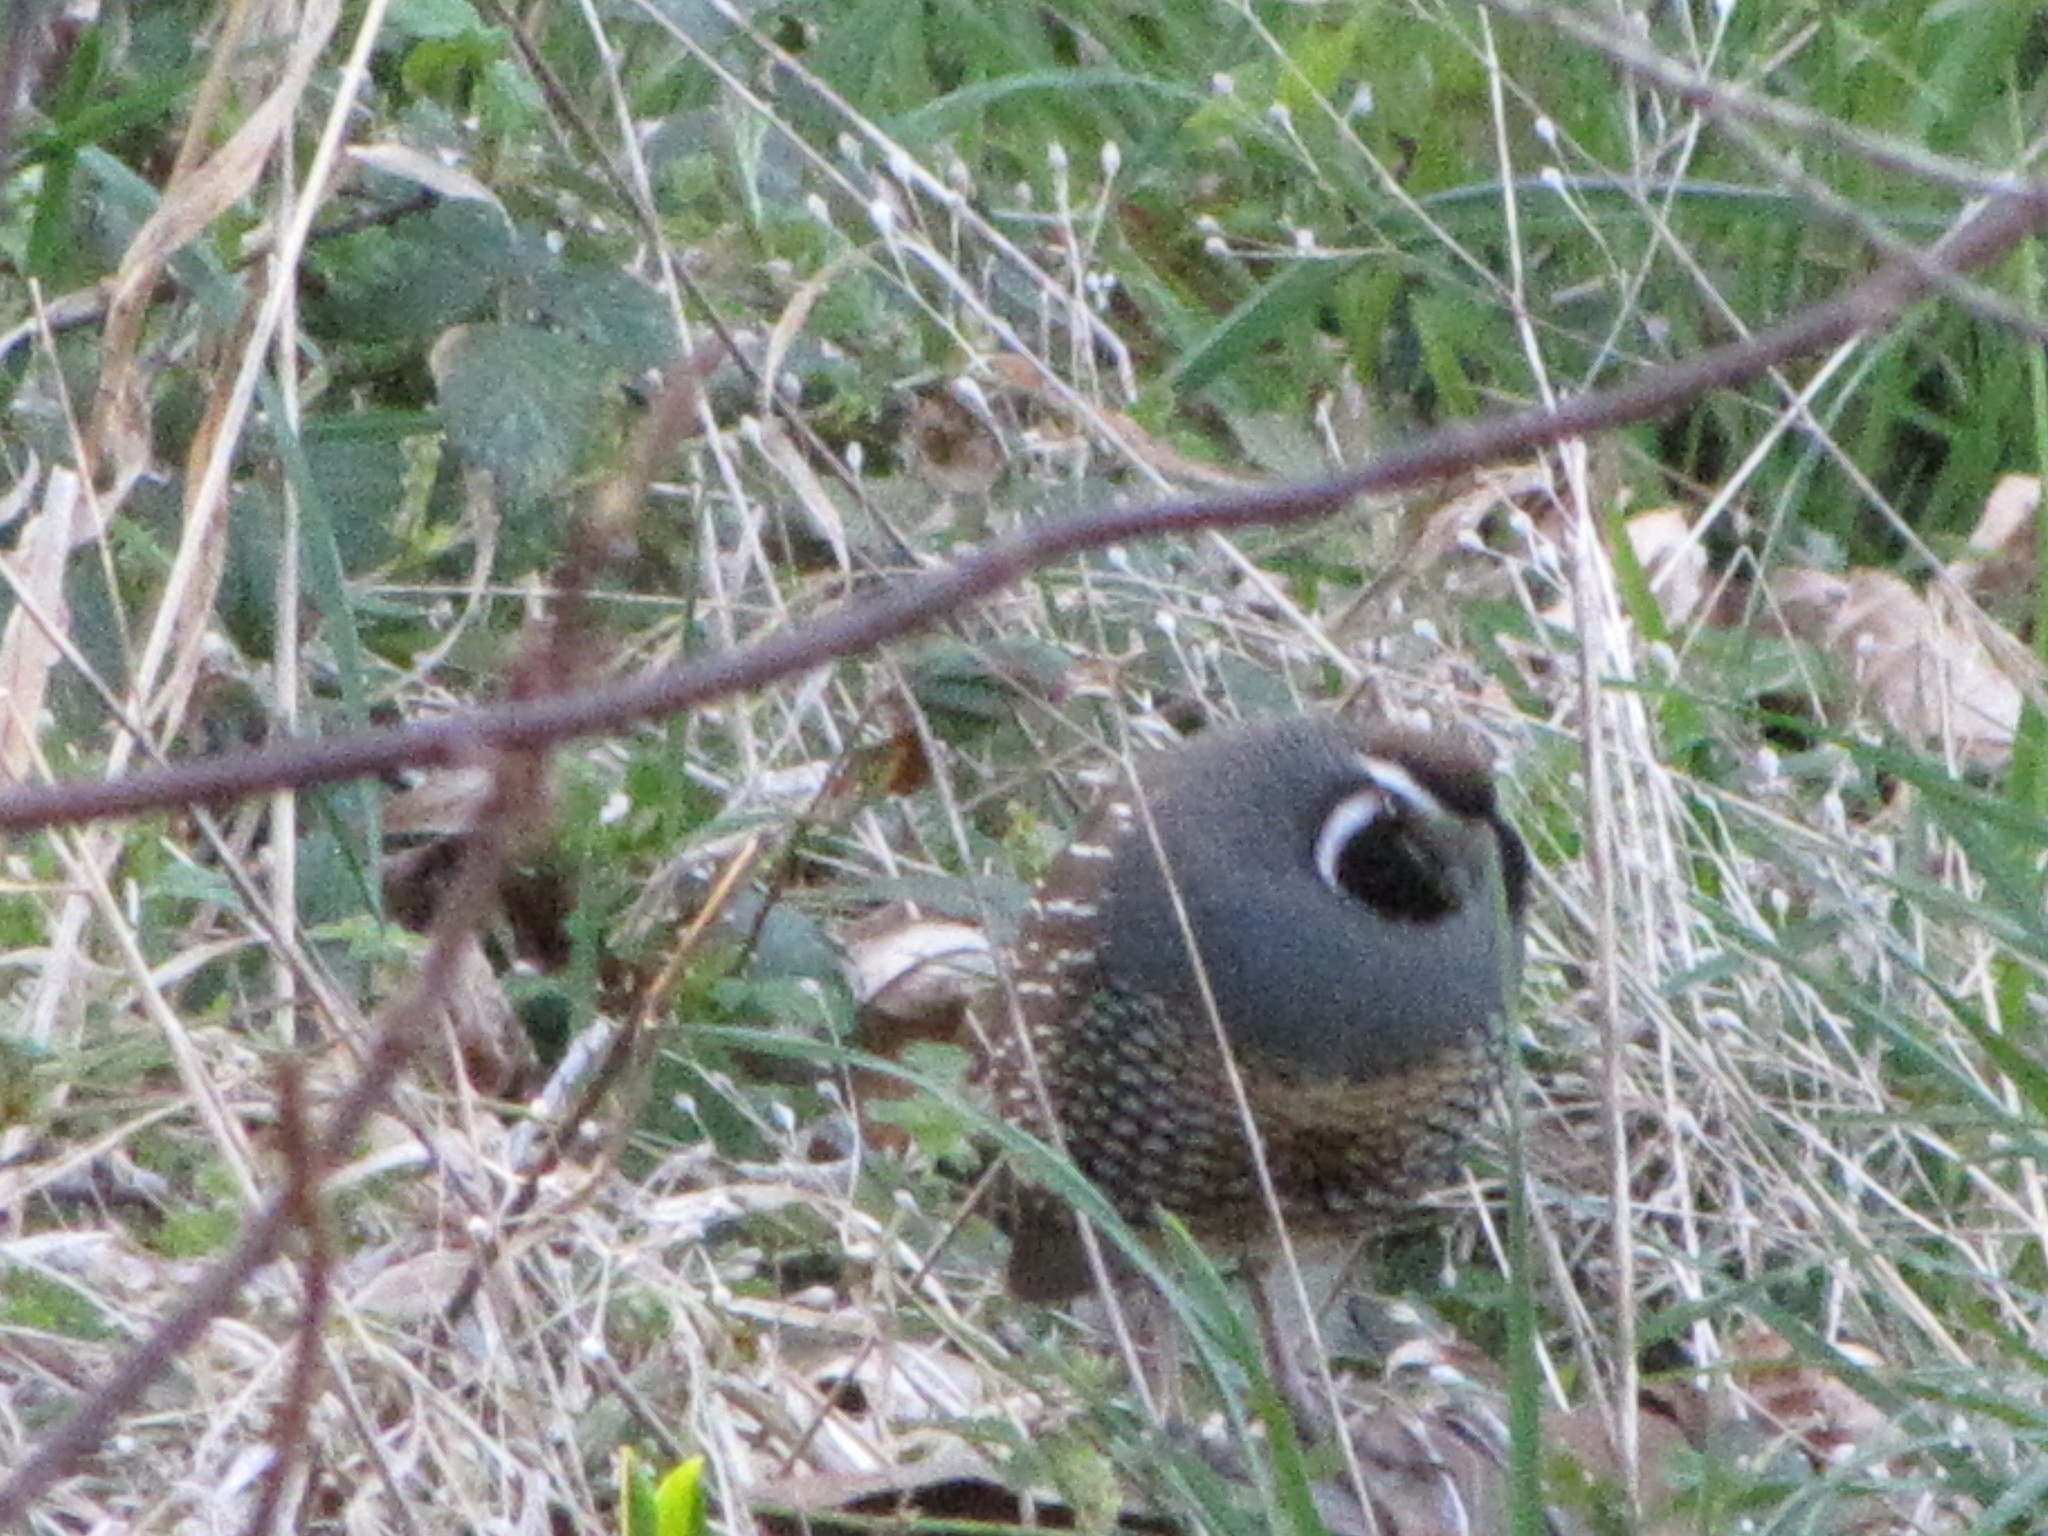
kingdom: Animalia
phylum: Chordata
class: Aves
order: Galliformes
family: Odontophoridae
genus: Callipepla
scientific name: Callipepla californica
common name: California quail
